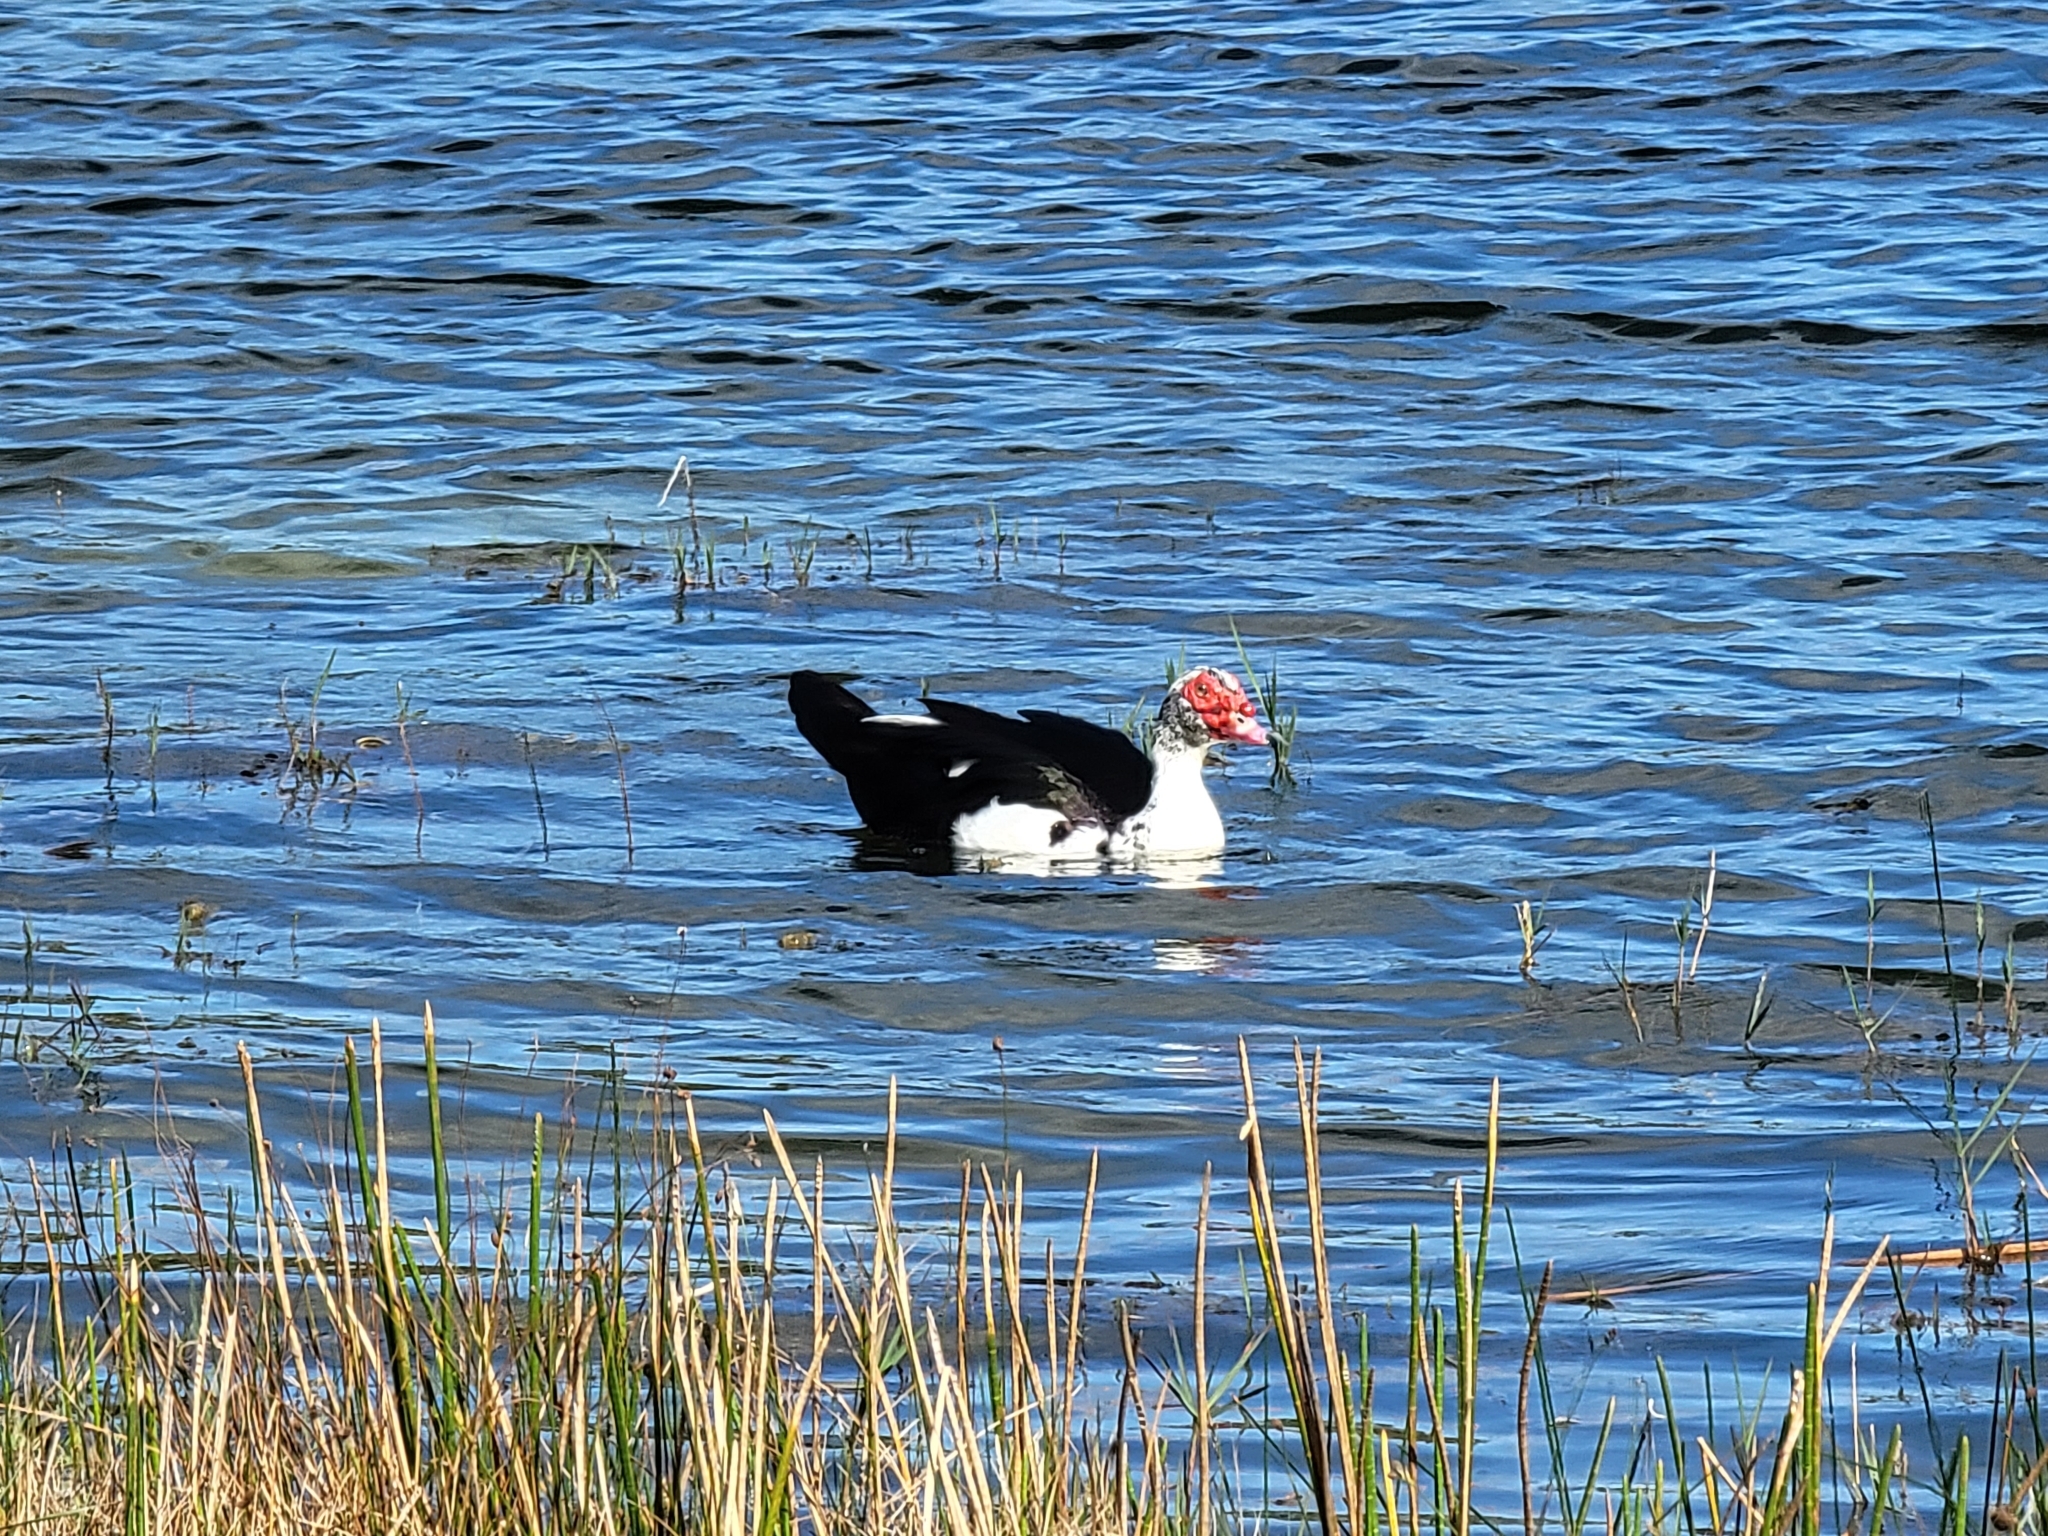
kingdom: Animalia
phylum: Chordata
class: Aves
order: Anseriformes
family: Anatidae
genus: Cairina
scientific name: Cairina moschata
